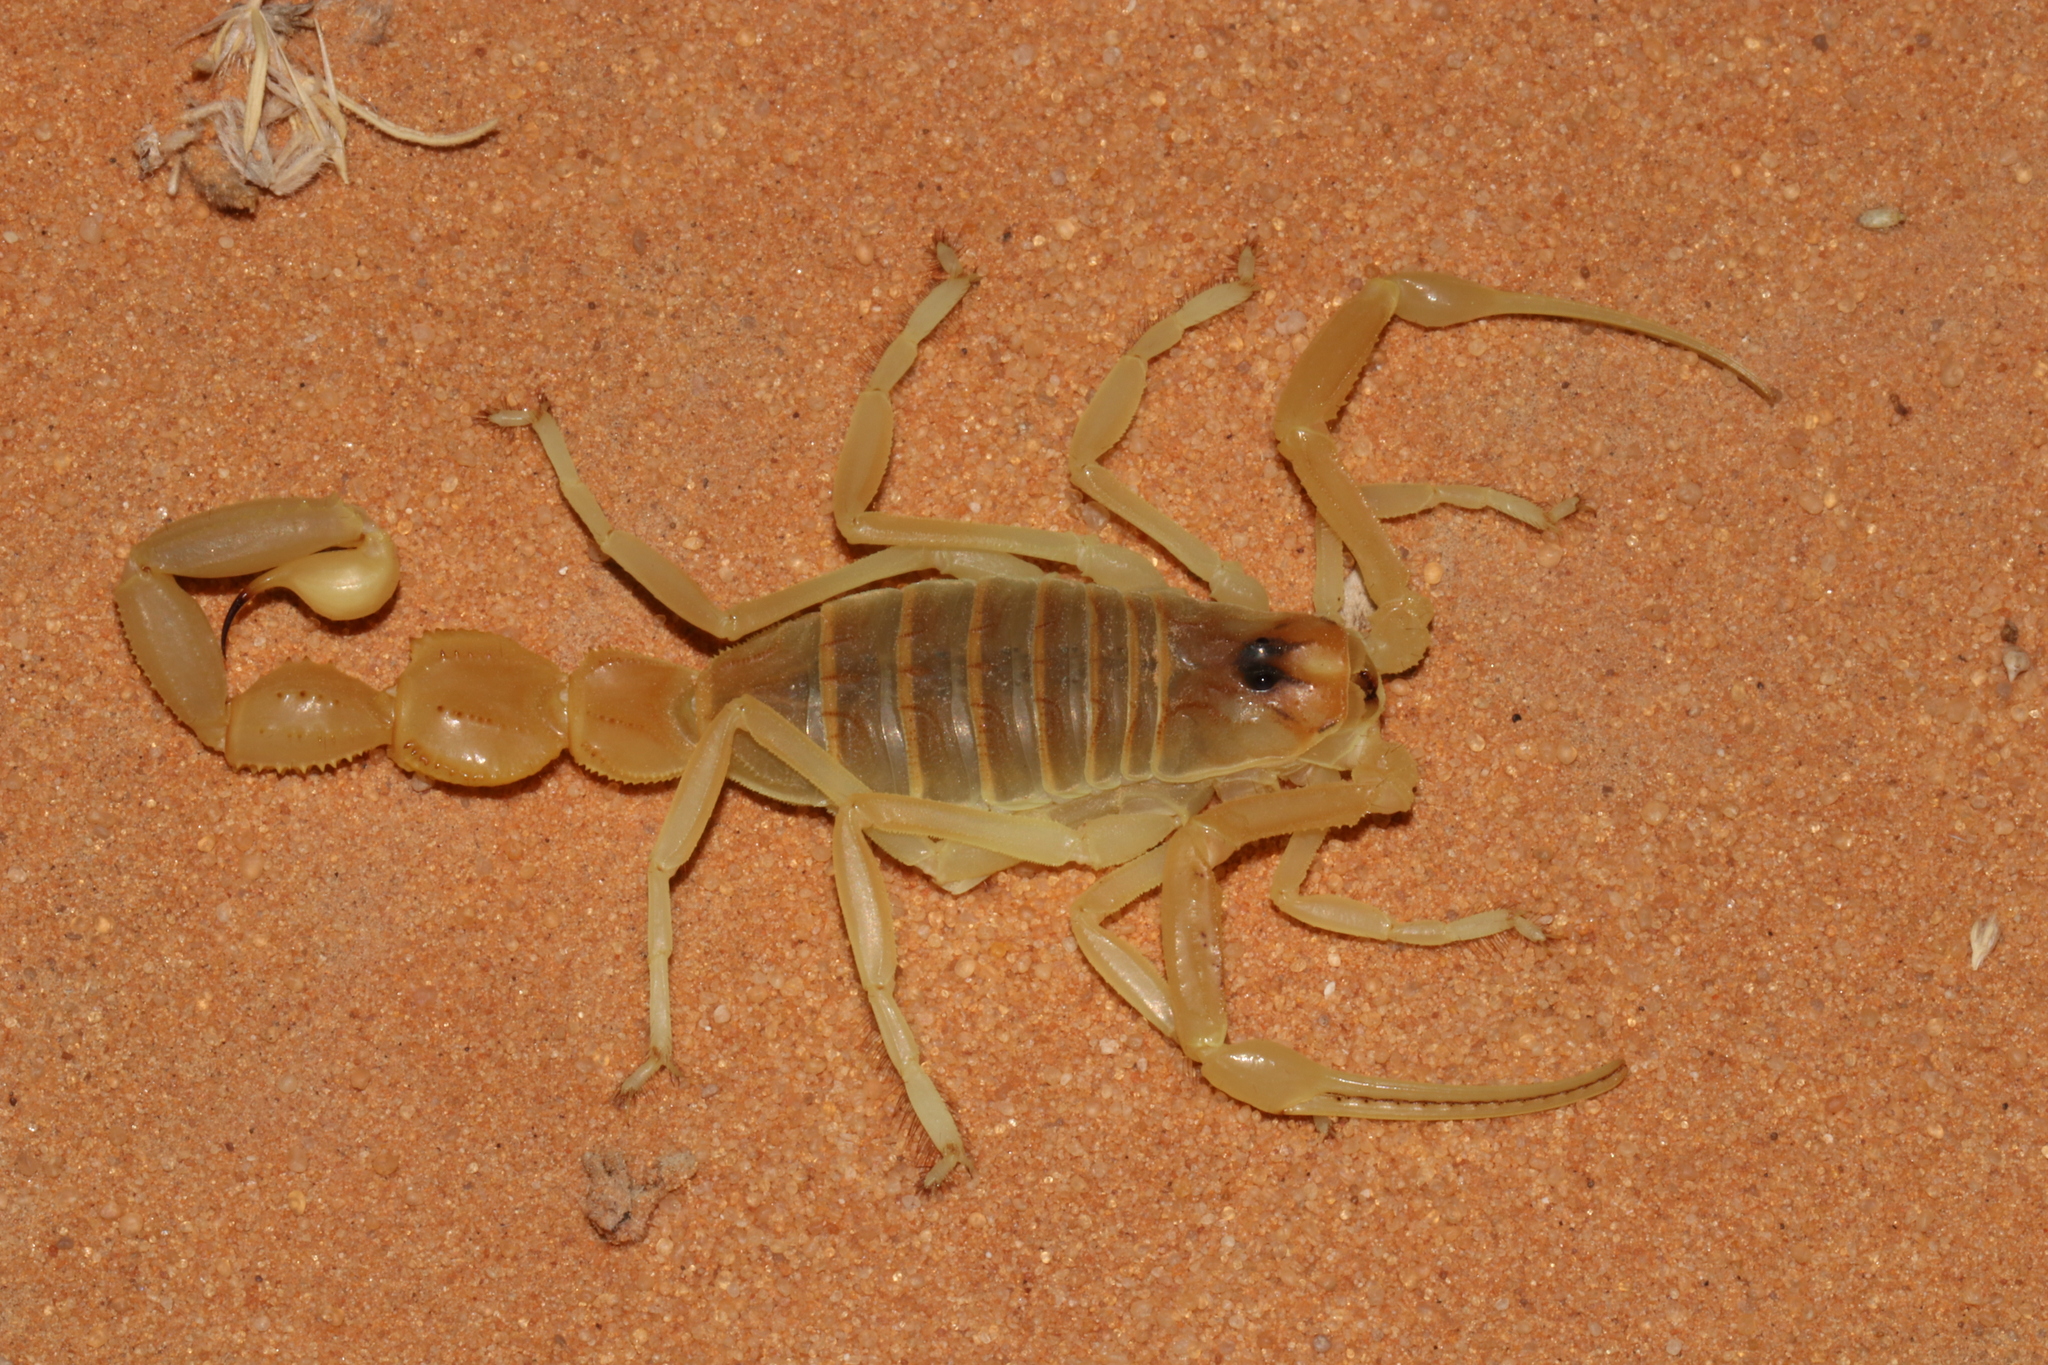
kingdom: Animalia
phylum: Arthropoda
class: Arachnida
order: Scorpiones
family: Buthidae
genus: Apistobuthus
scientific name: Apistobuthus pterygocercus
